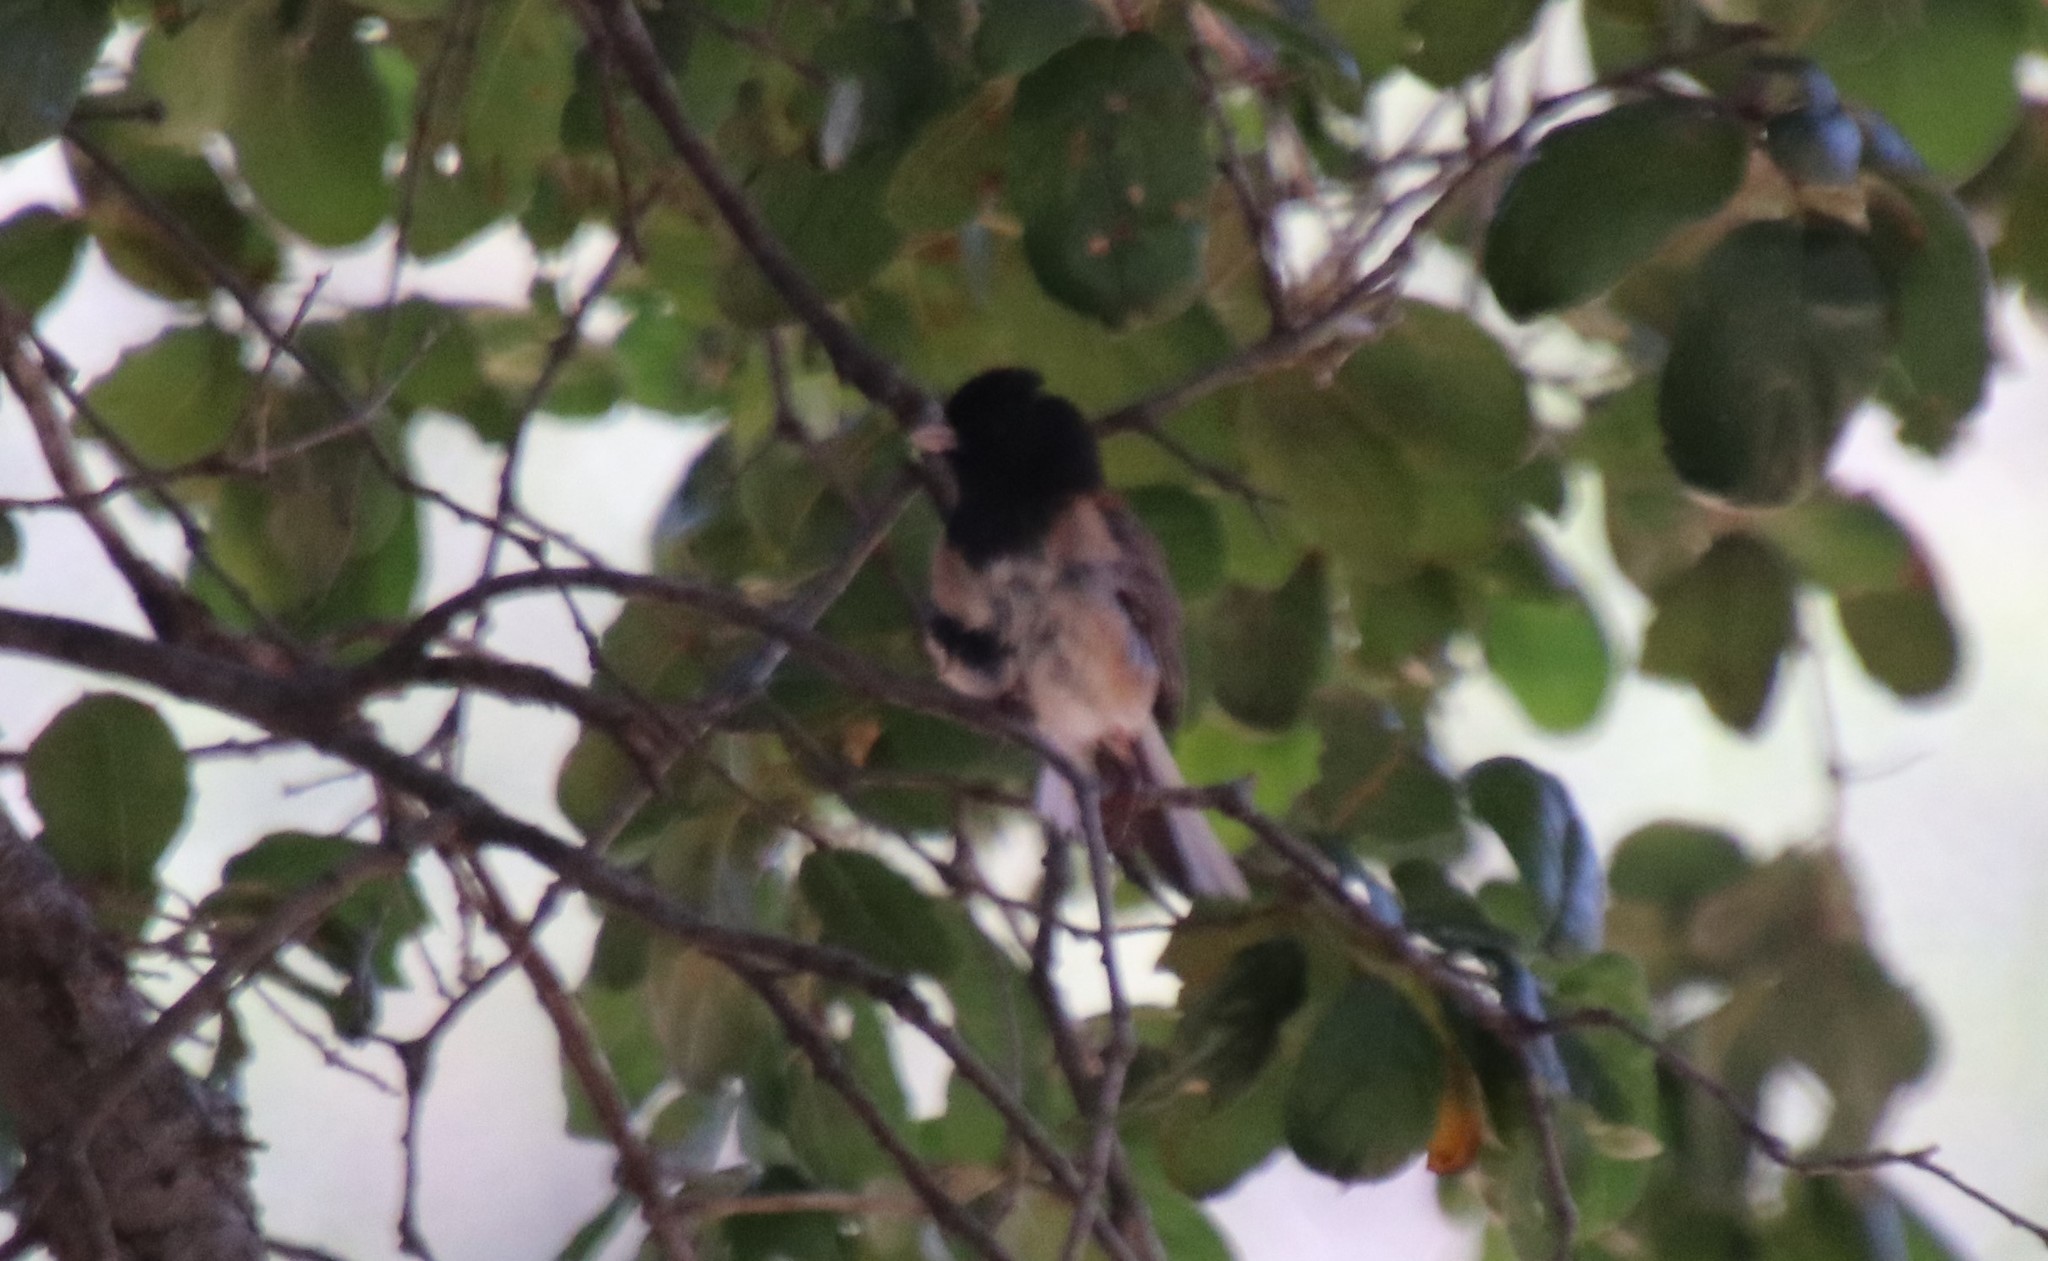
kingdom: Animalia
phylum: Chordata
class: Aves
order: Passeriformes
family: Passerellidae
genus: Junco
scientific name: Junco hyemalis
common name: Dark-eyed junco
